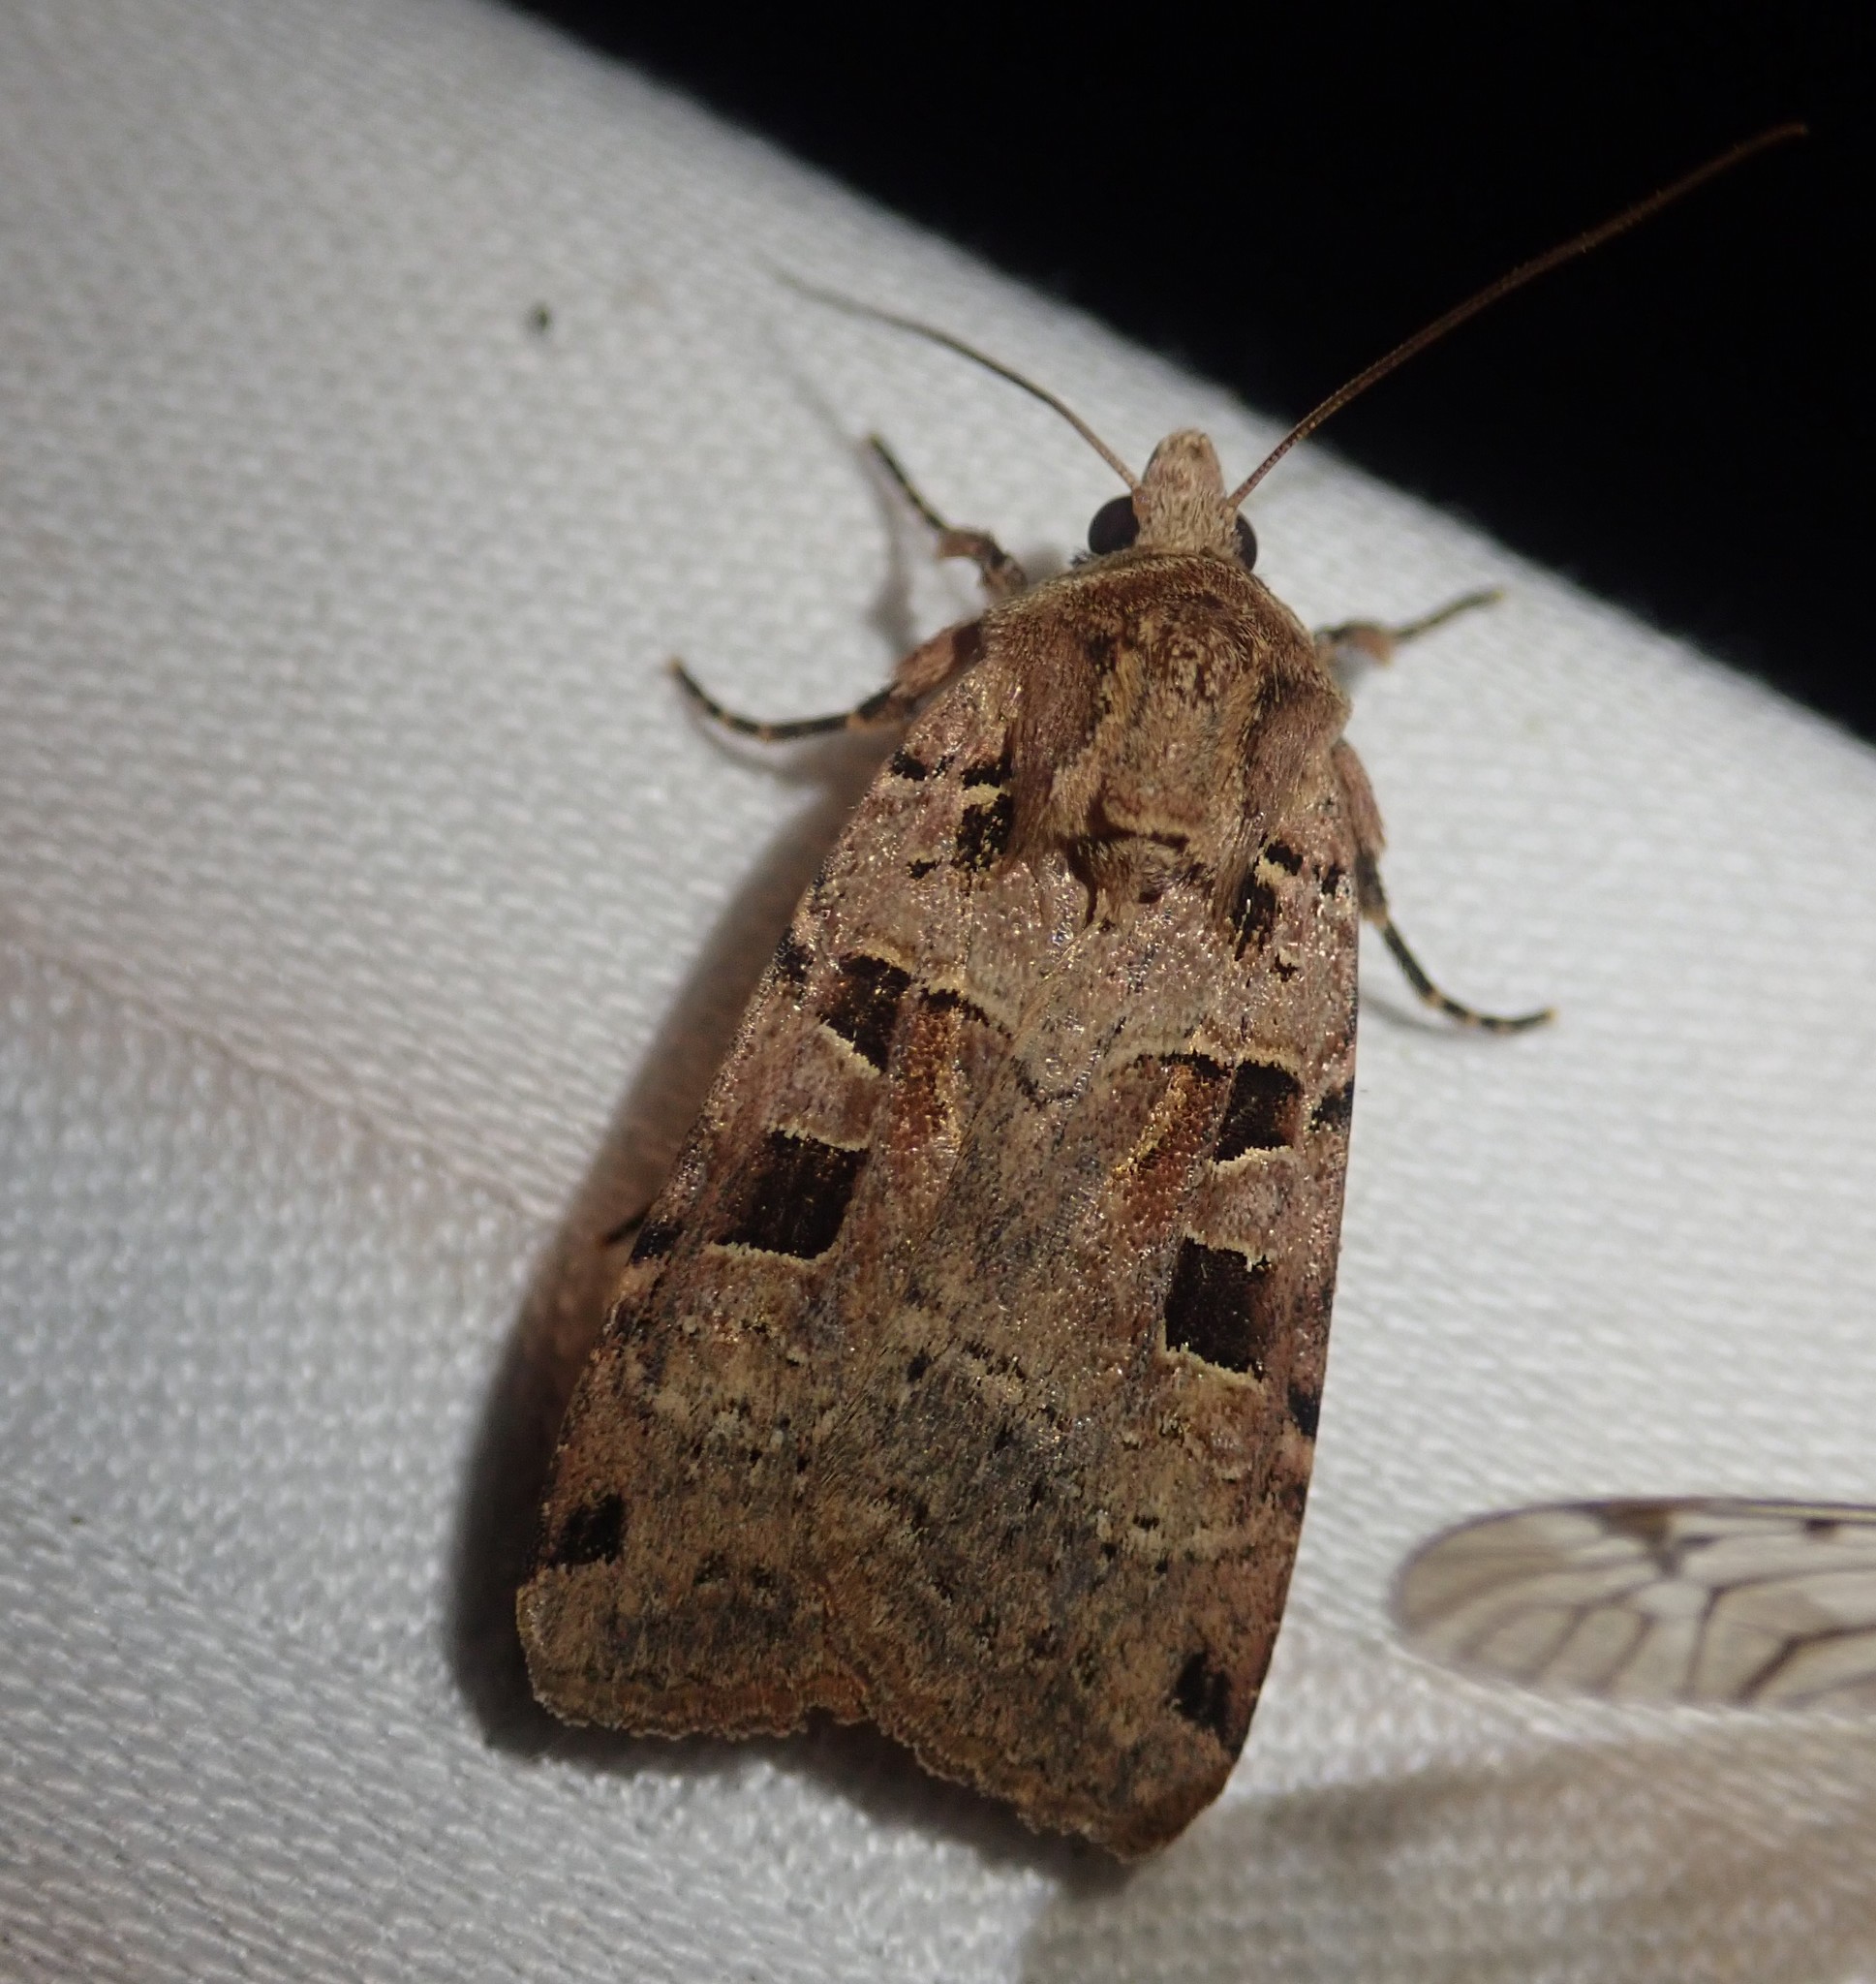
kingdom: Animalia
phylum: Arthropoda
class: Insecta
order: Lepidoptera
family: Noctuidae
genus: Xestia
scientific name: Xestia triangulum
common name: Double square-spot
